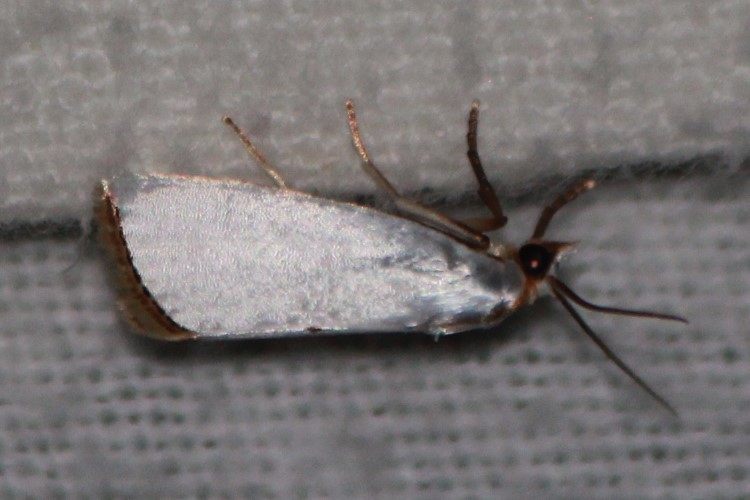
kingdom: Animalia
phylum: Arthropoda
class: Insecta
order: Lepidoptera
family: Crambidae
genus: Argyria
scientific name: Argyria nivalis
